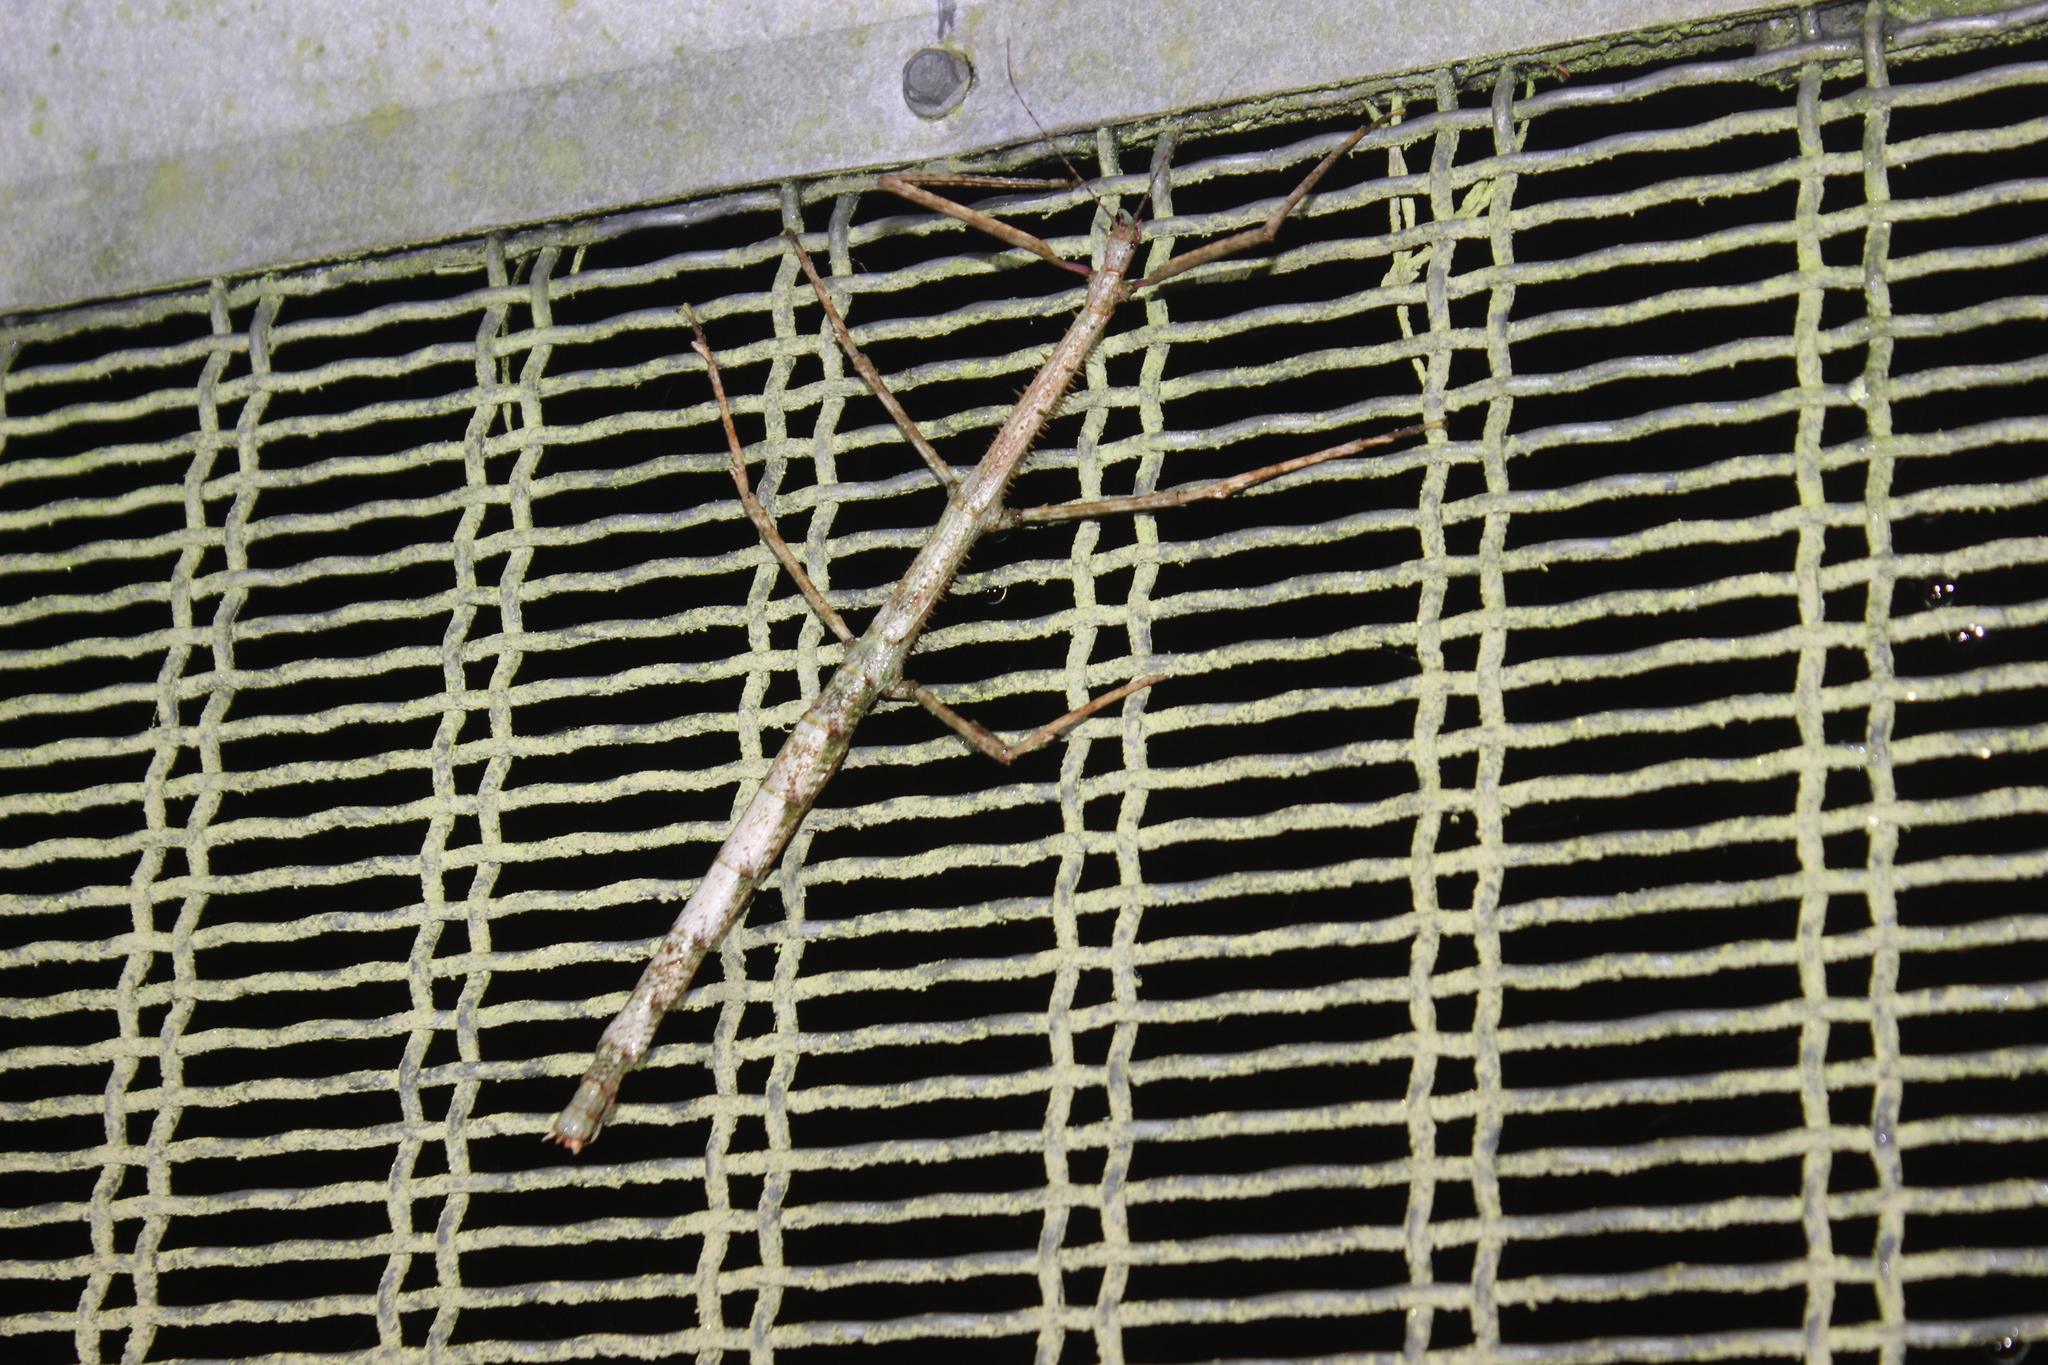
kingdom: Animalia
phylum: Arthropoda
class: Insecta
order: Phasmida
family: Phasmatidae
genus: Argosarchus
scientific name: Argosarchus horridus
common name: Bristly stick insect
